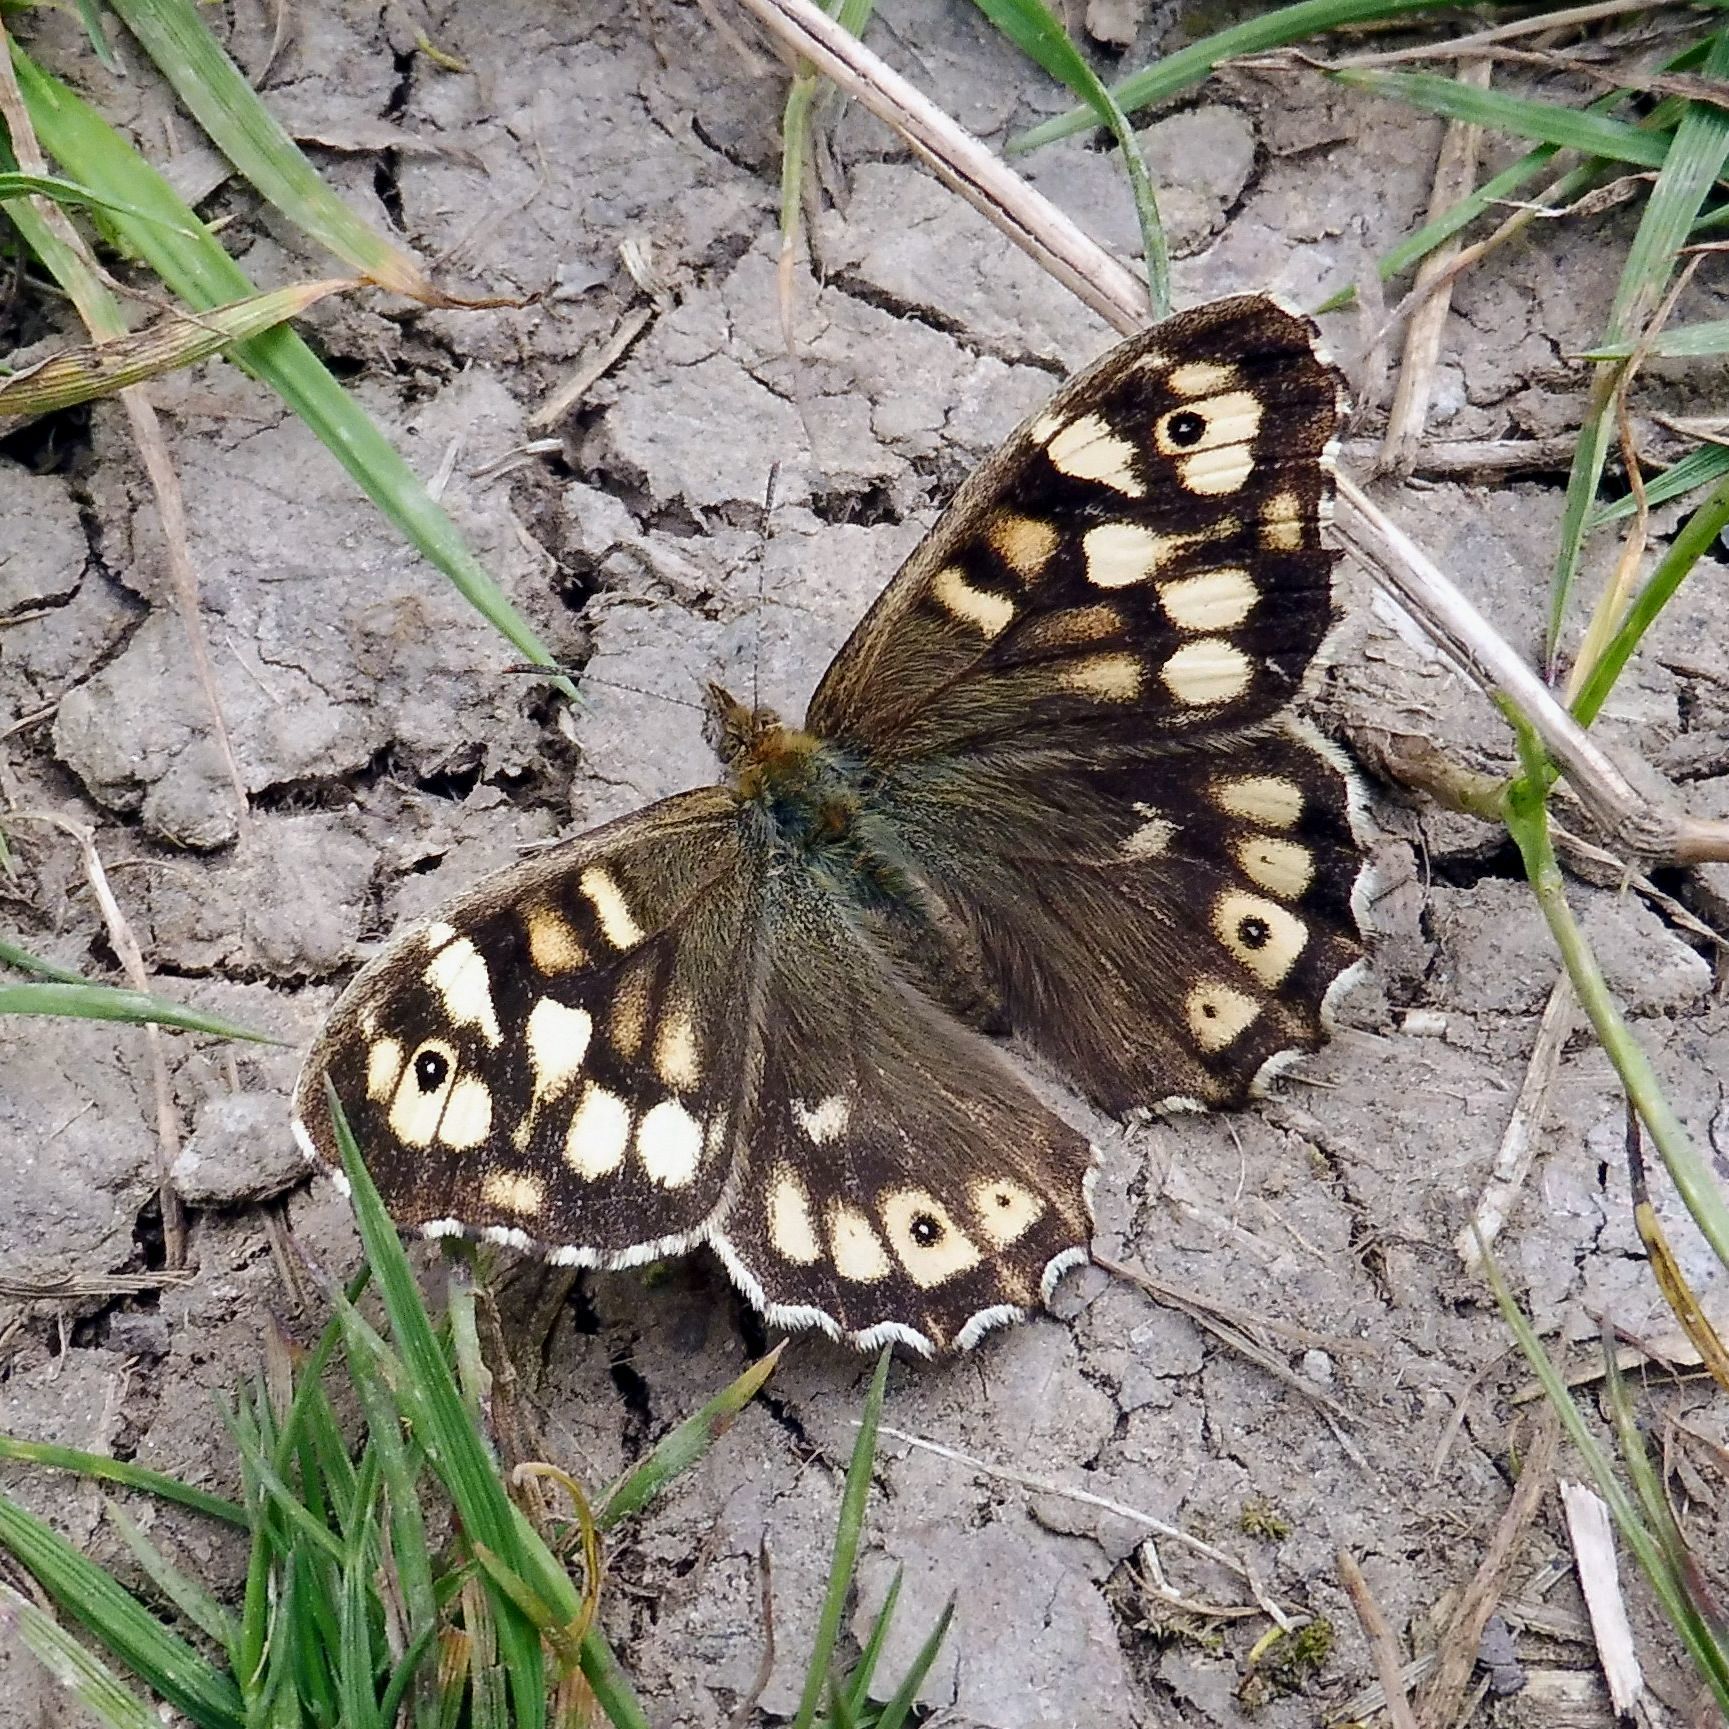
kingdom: Animalia
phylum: Arthropoda
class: Insecta
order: Lepidoptera
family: Nymphalidae
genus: Pararge
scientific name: Pararge aegeria
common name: Speckled wood
